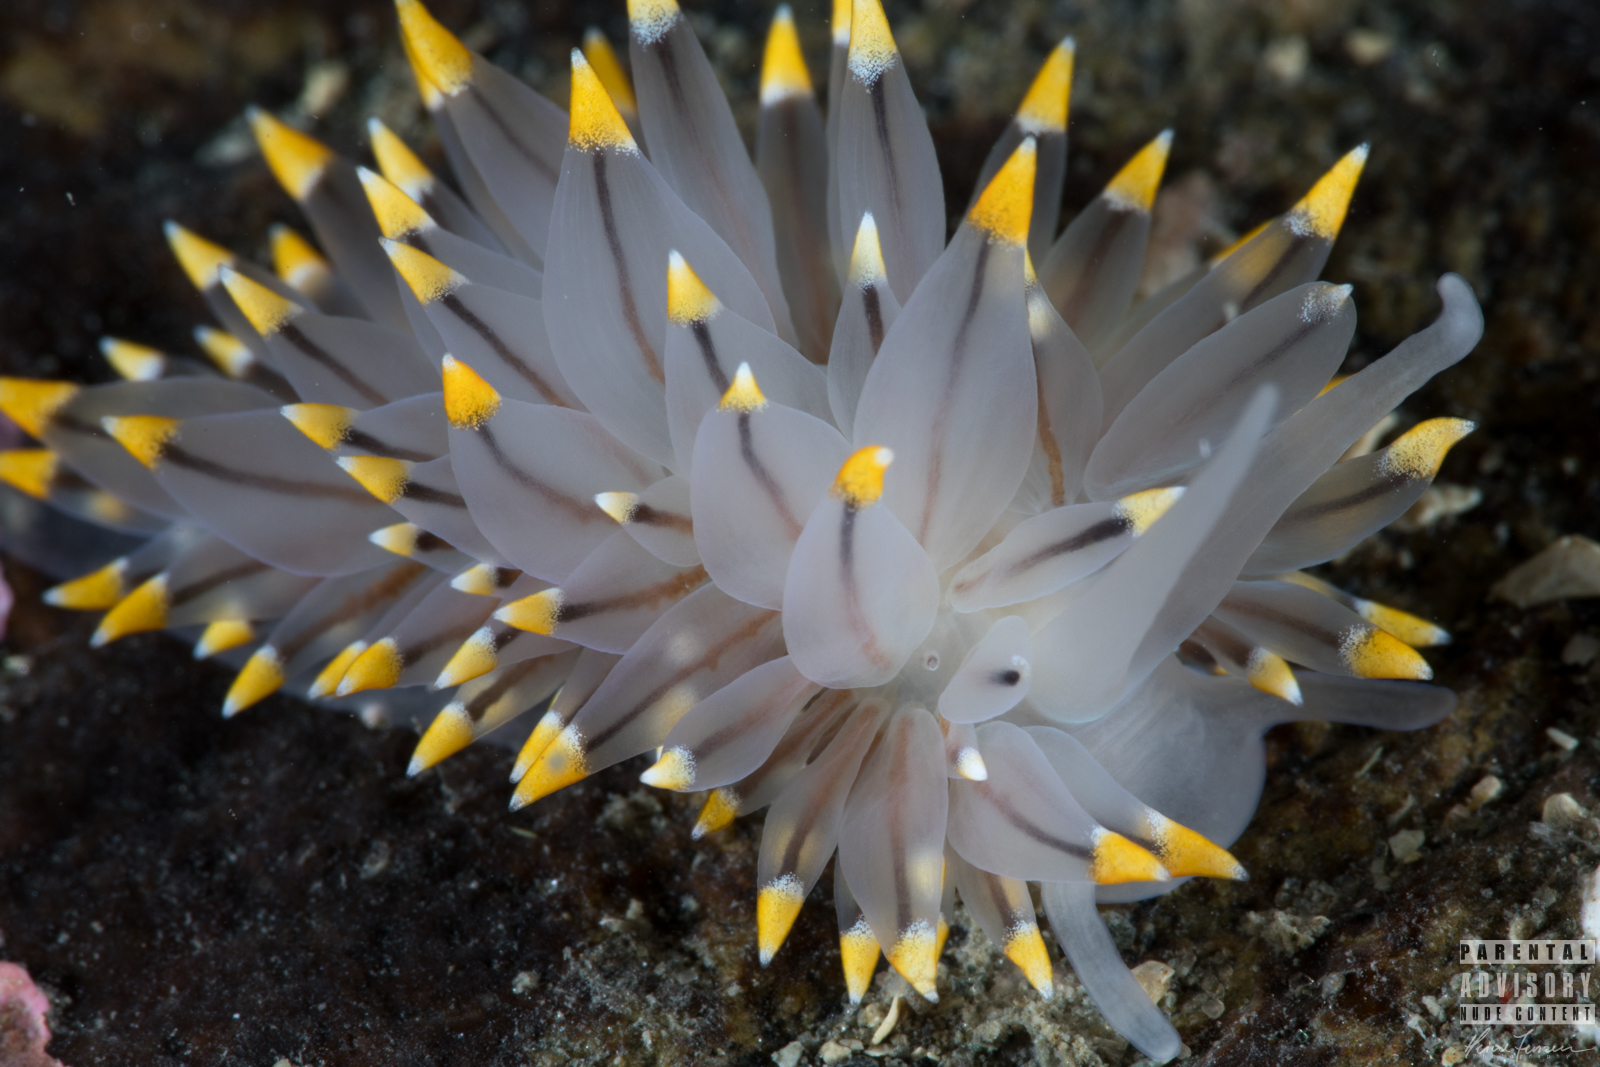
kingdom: Animalia
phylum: Mollusca
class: Gastropoda
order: Nudibranchia
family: Eubranchidae
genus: Eubranchus
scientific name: Eubranchus tricolor
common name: Painted balloon aeolis
